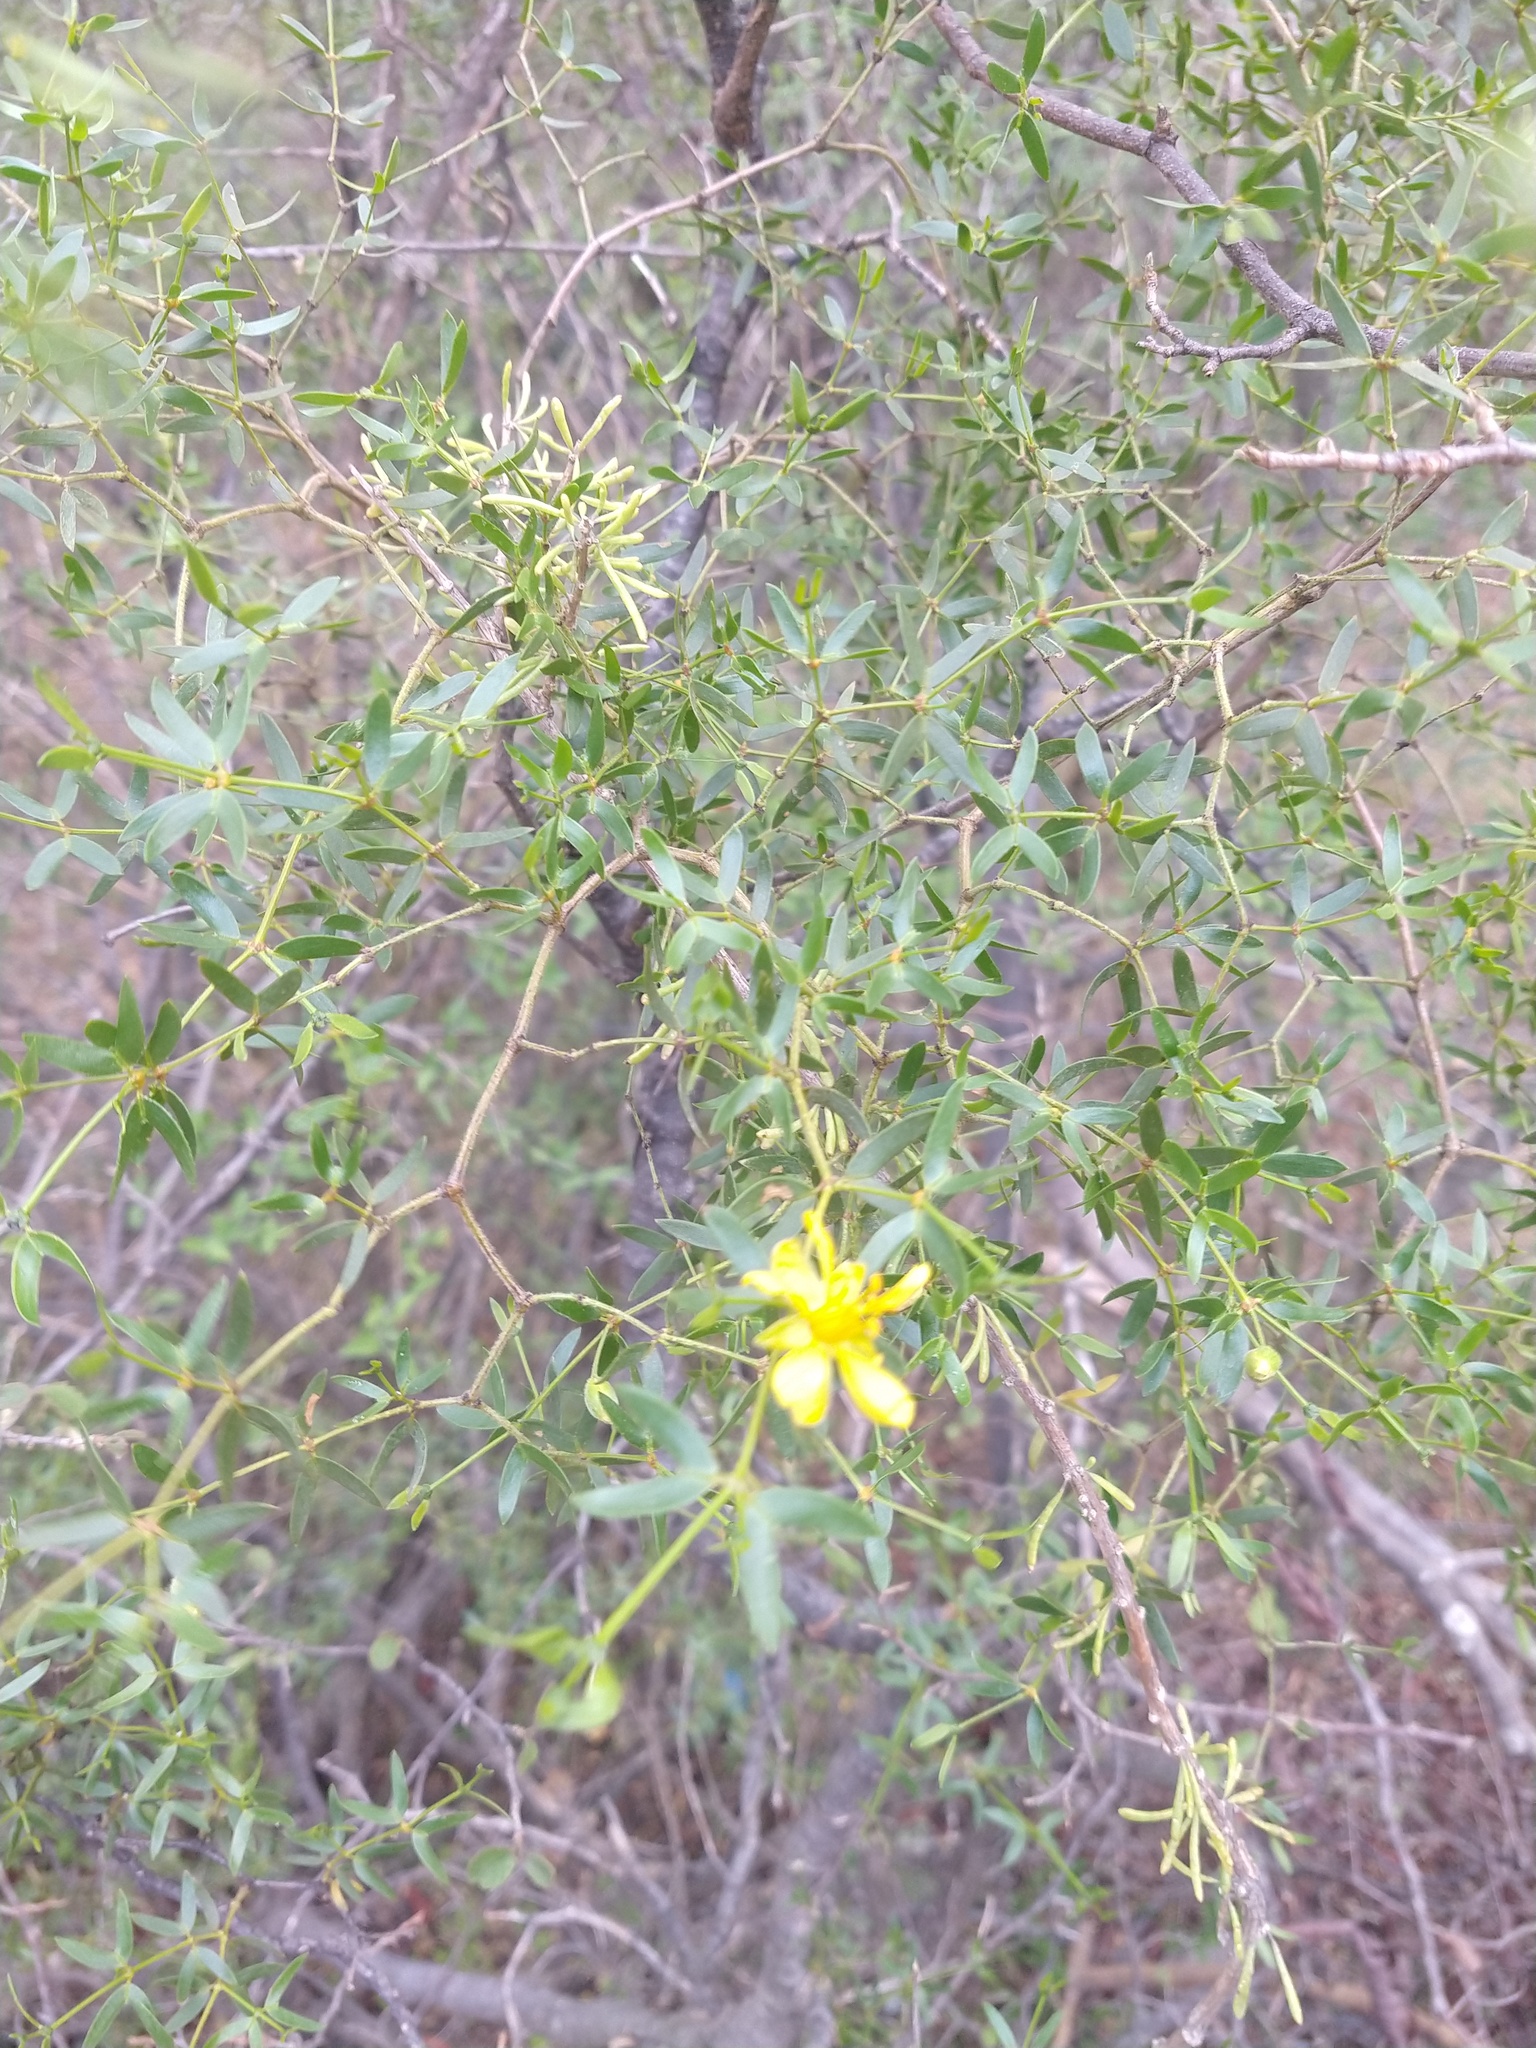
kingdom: Plantae
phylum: Tracheophyta
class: Magnoliopsida
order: Zygophyllales
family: Zygophyllaceae
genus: Larrea
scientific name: Larrea divaricata
